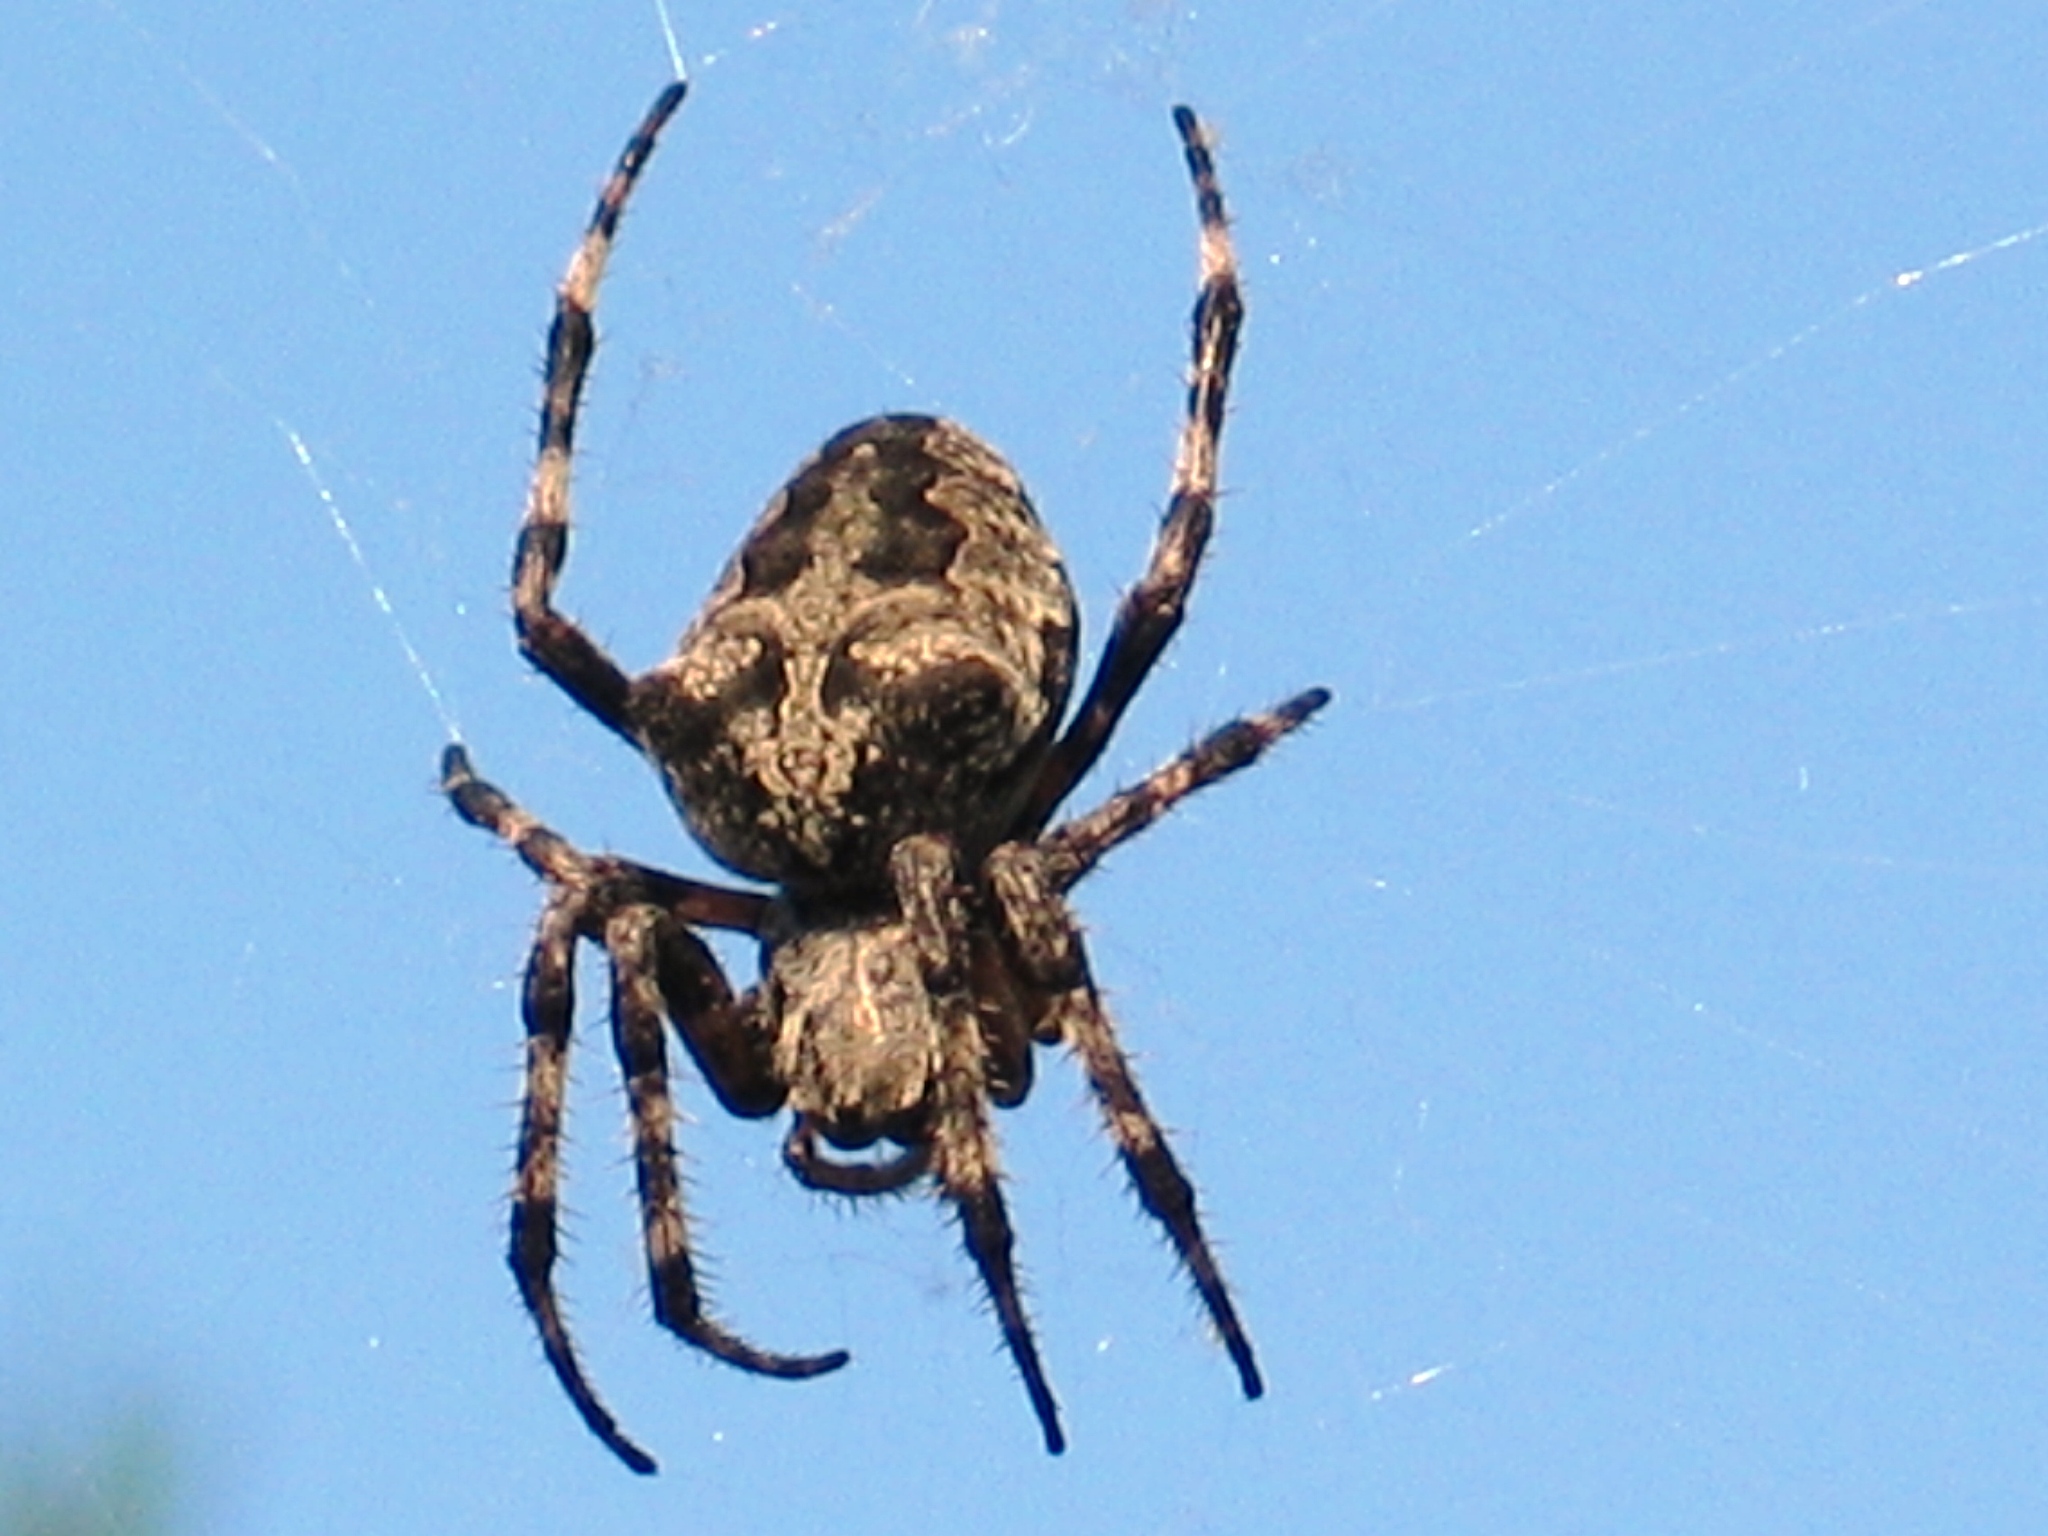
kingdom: Animalia
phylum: Arthropoda
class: Arachnida
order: Araneae
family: Araneidae
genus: Araneus
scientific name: Araneus circe
